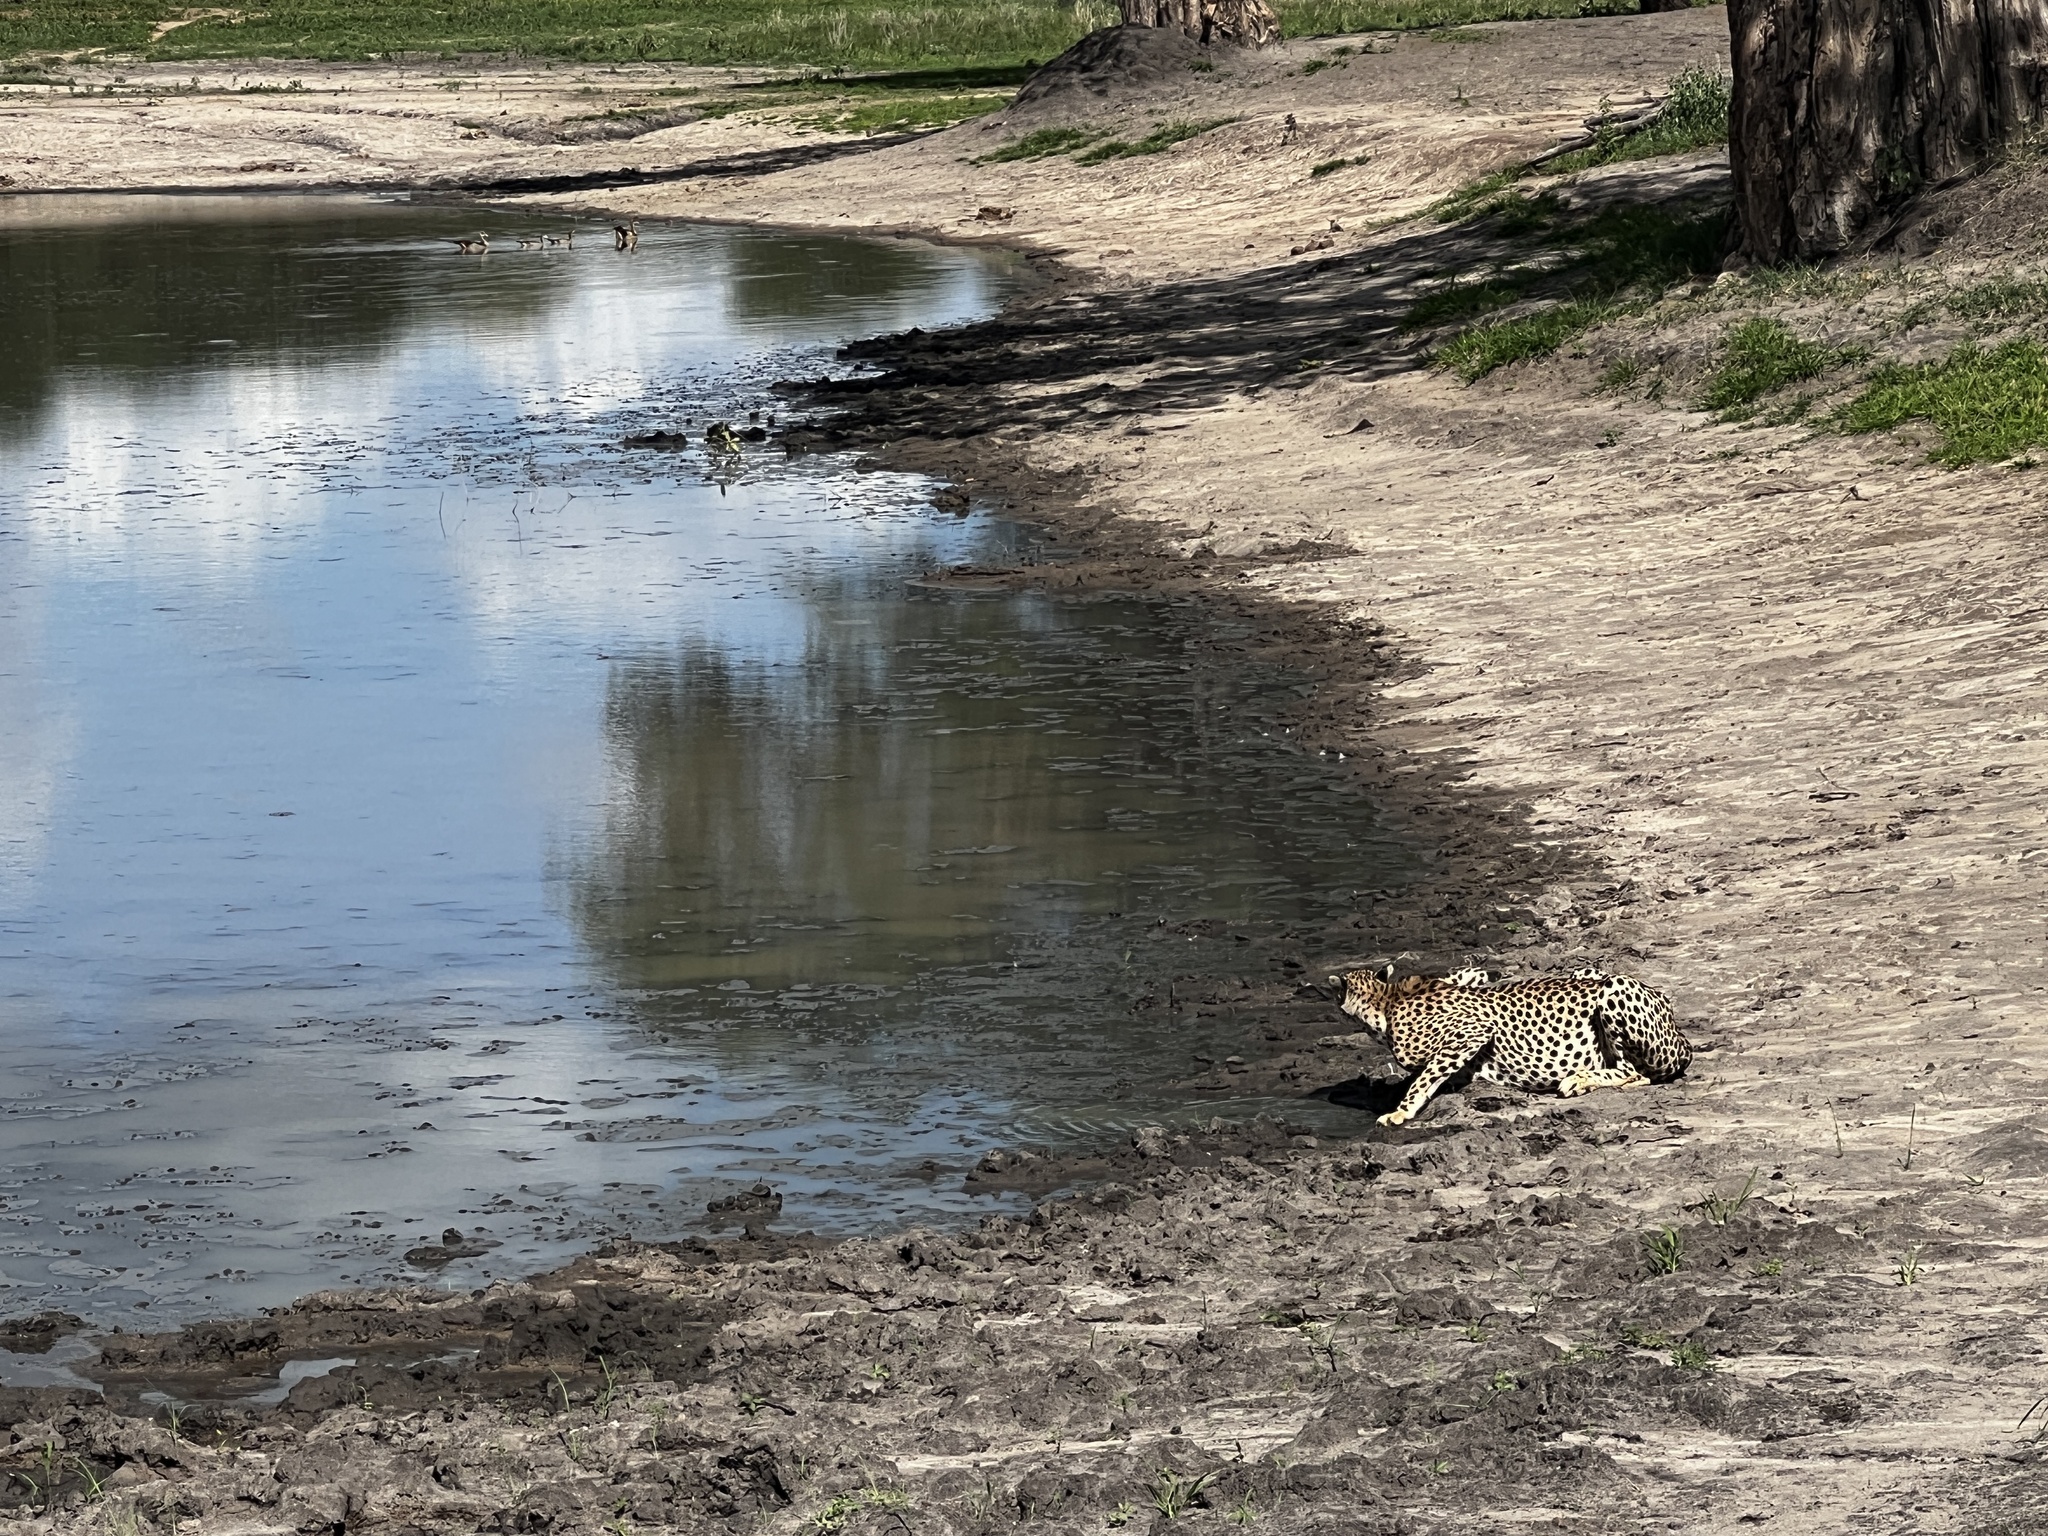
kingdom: Animalia
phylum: Chordata
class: Mammalia
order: Carnivora
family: Felidae
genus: Acinonyx
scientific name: Acinonyx jubatus
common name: Cheetah
